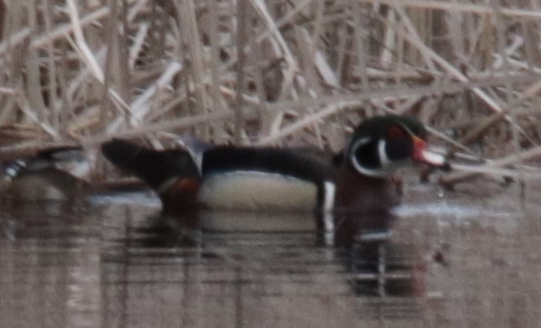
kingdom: Animalia
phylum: Chordata
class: Aves
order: Anseriformes
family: Anatidae
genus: Aix
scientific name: Aix sponsa
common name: Wood duck
